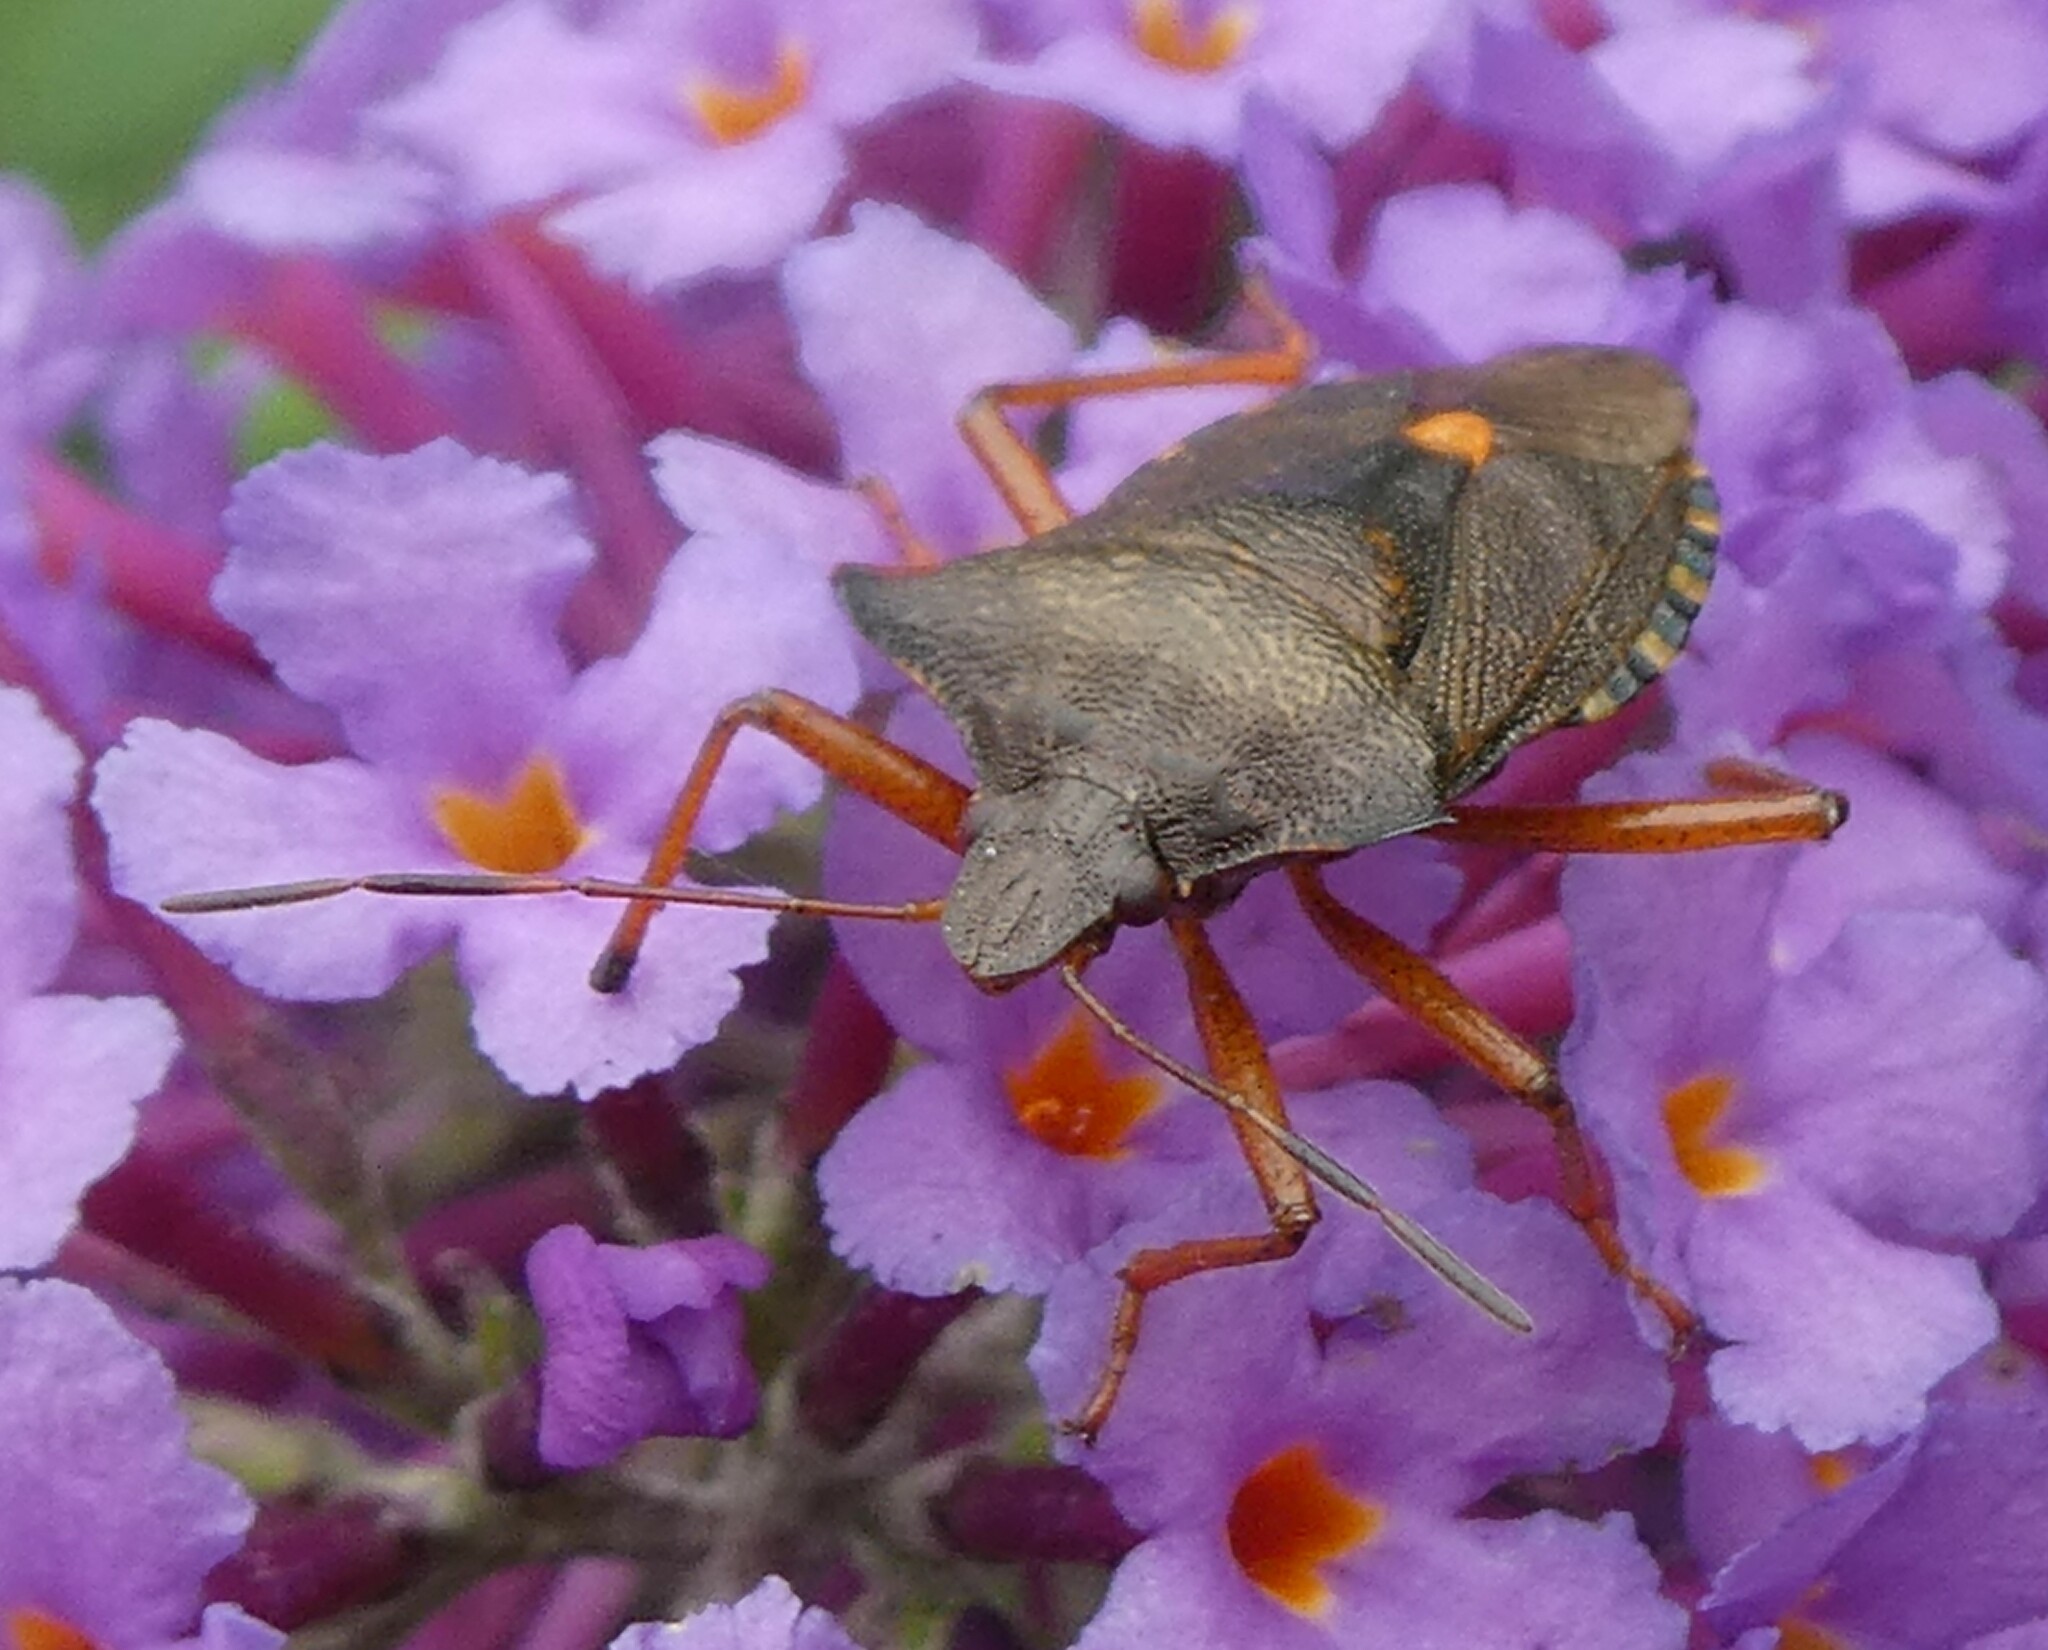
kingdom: Animalia
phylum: Arthropoda
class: Insecta
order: Hemiptera
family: Pentatomidae
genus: Pentatoma
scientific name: Pentatoma rufipes
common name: Forest bug
